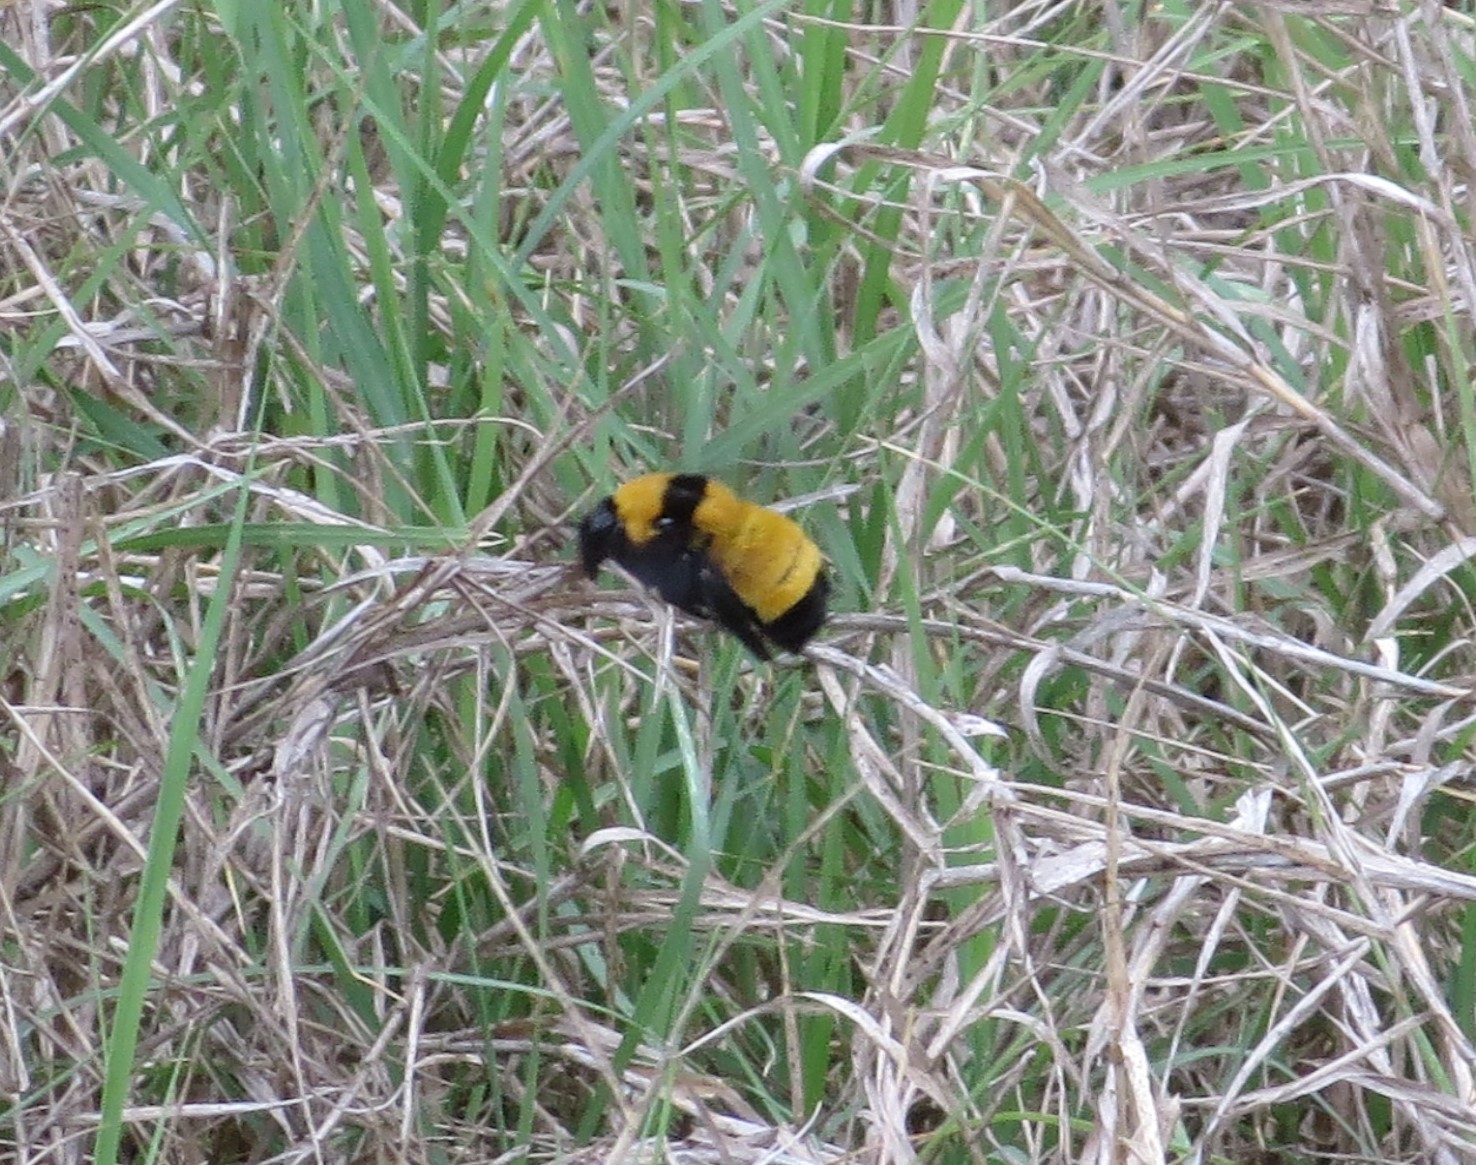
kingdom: Animalia
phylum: Arthropoda
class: Insecta
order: Hymenoptera
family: Apidae
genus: Bombus
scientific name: Bombus sonorus
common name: Sonoran bumble bee
